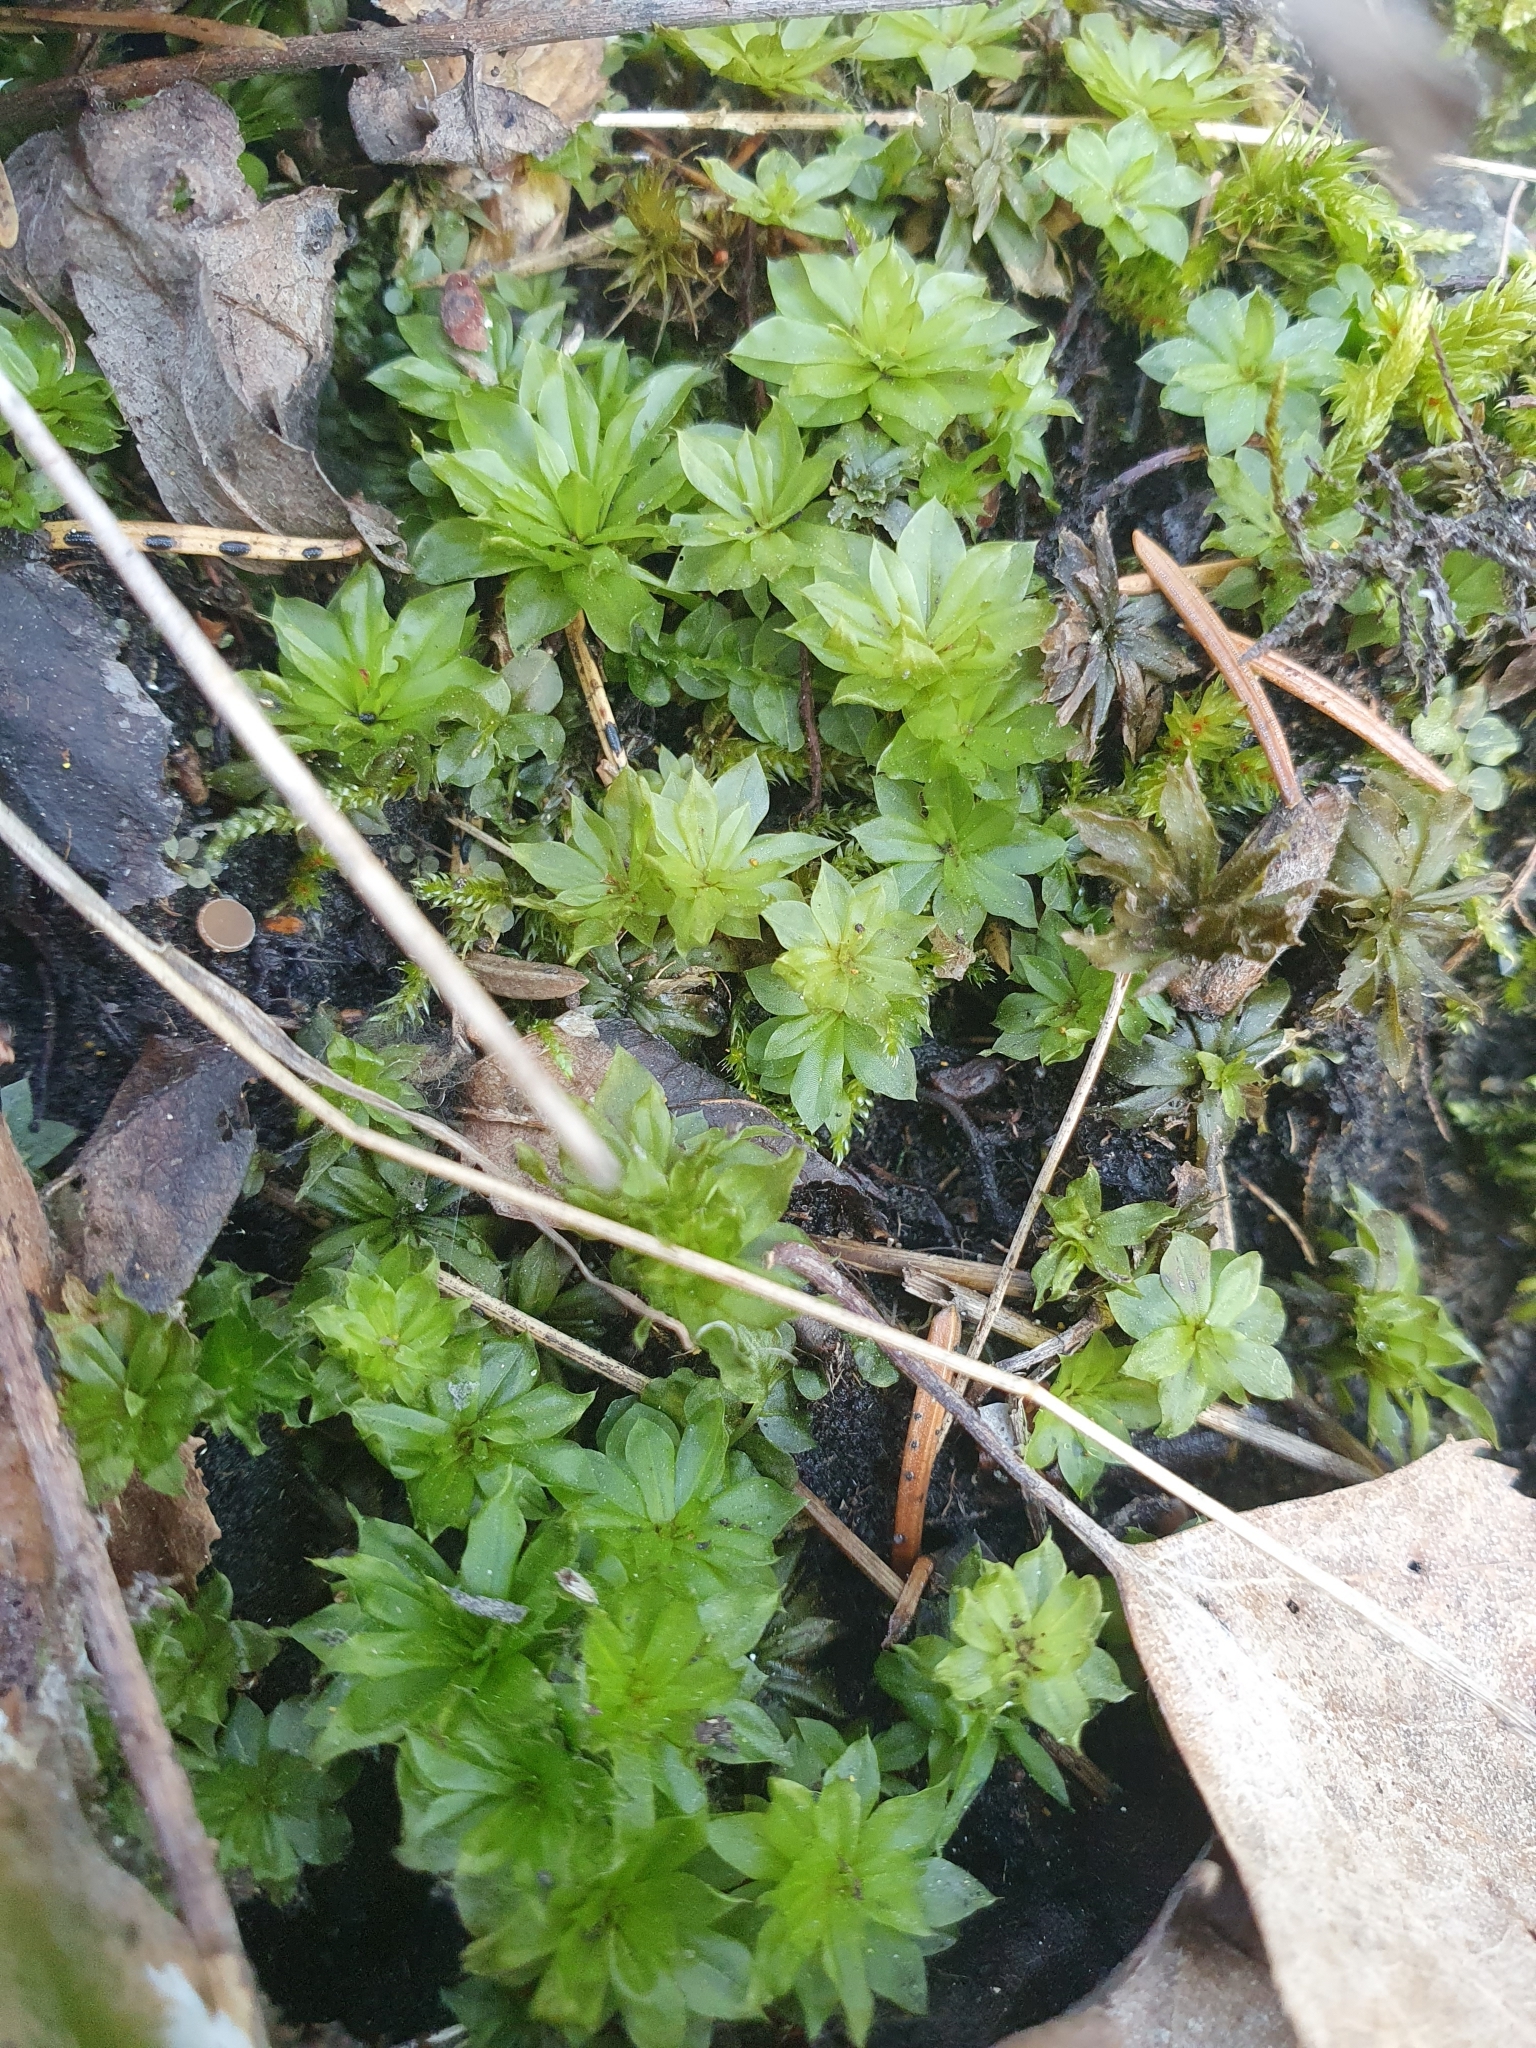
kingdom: Plantae
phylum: Bryophyta
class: Bryopsida
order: Bryales
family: Bryaceae
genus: Rhodobryum
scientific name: Rhodobryum roseum
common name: Rose-moss
